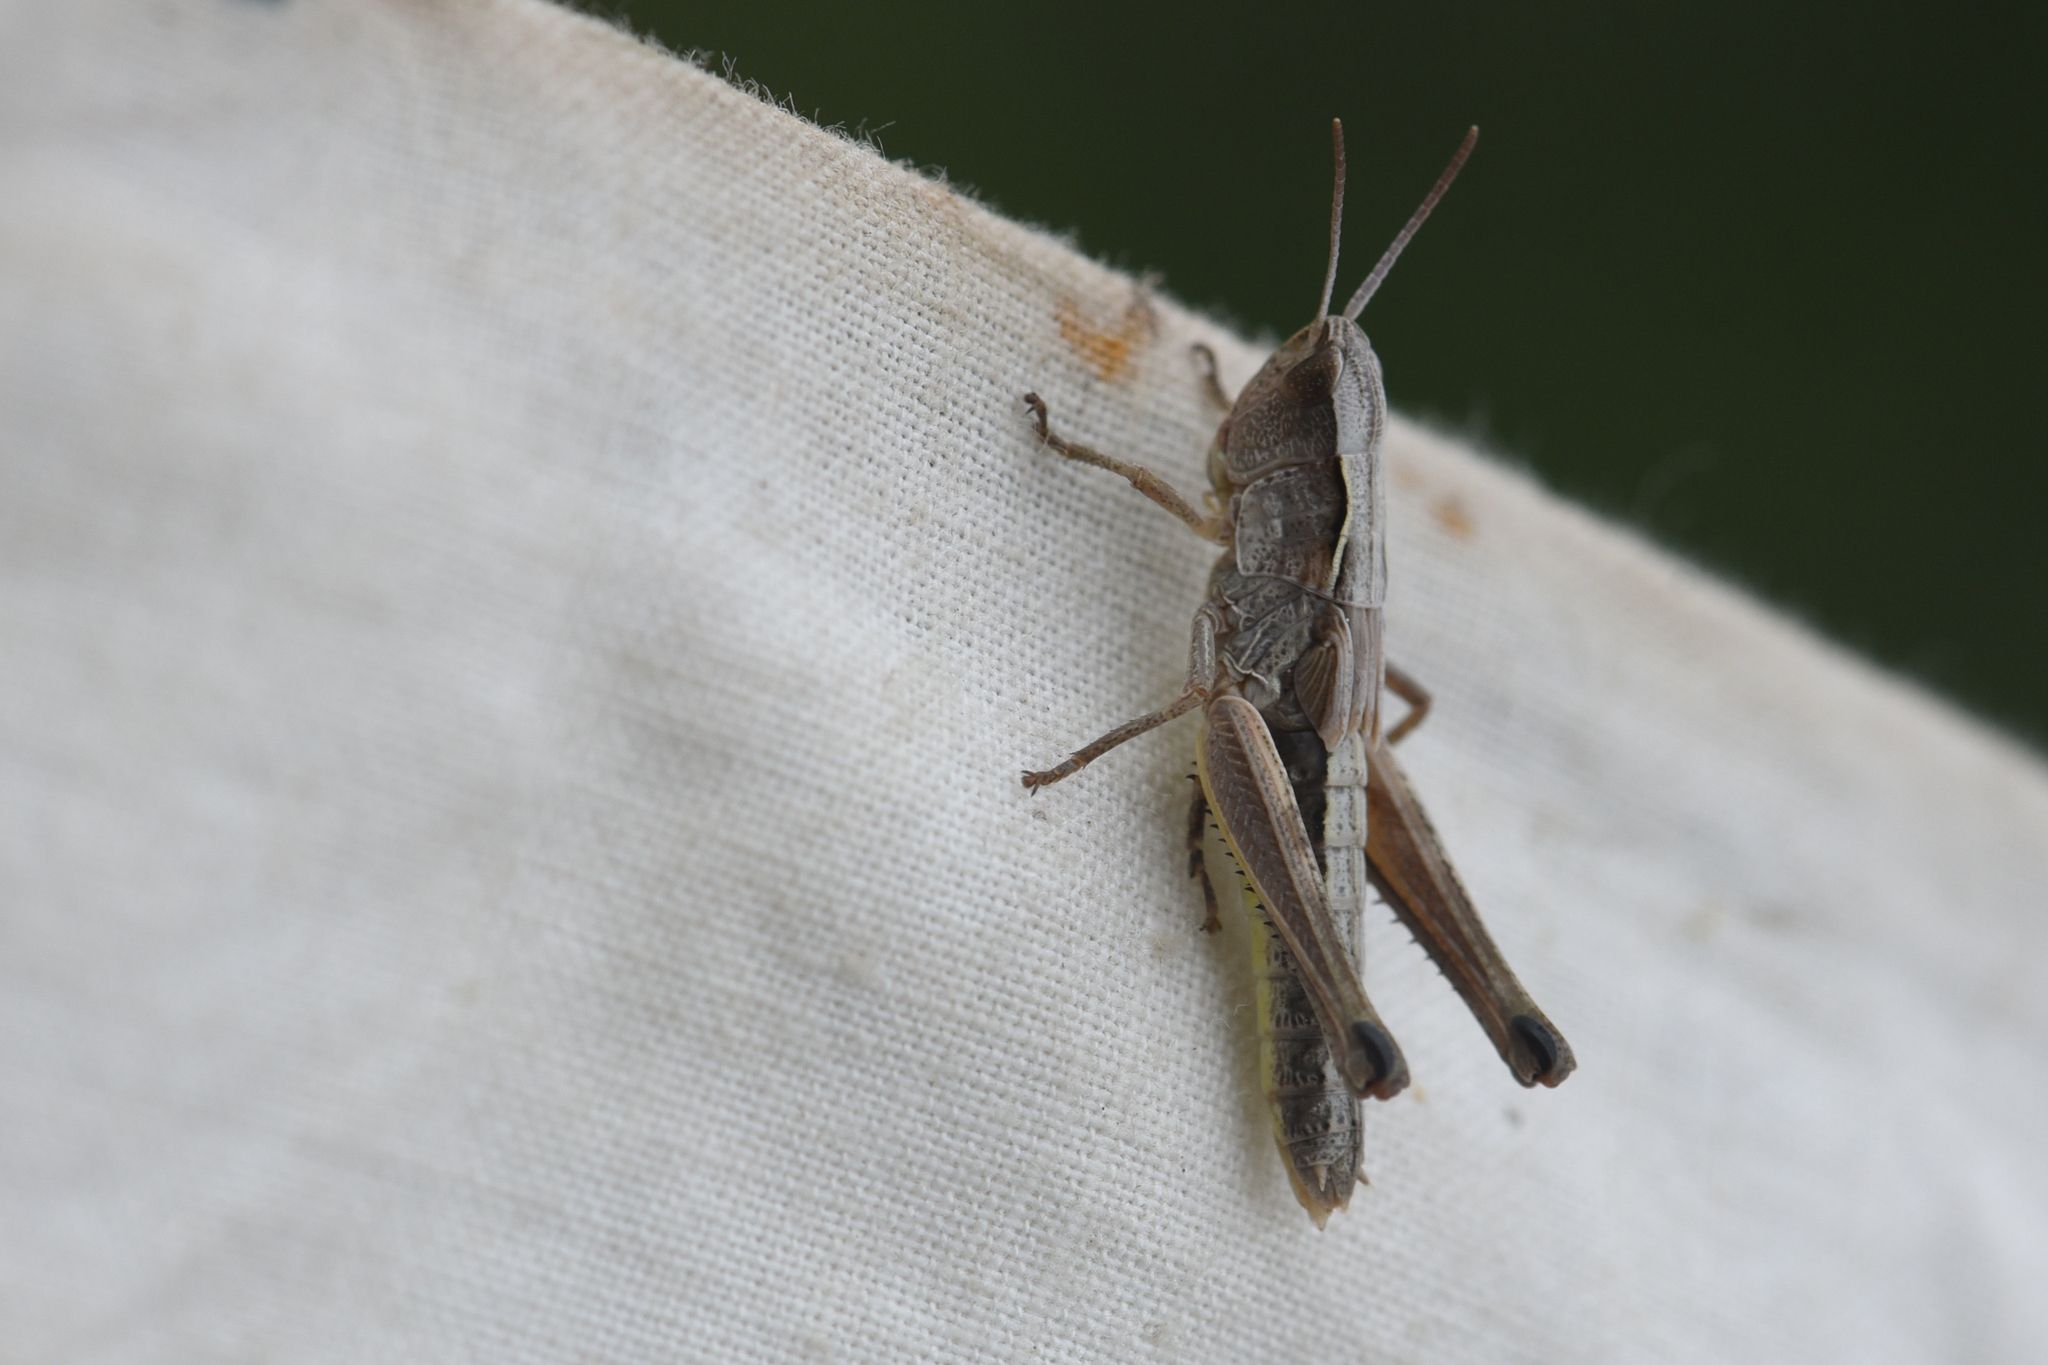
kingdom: Animalia
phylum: Arthropoda
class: Insecta
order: Orthoptera
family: Acrididae
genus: Pseudochorthippus
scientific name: Pseudochorthippus curtipennis
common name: Marsh meadow grasshopper
